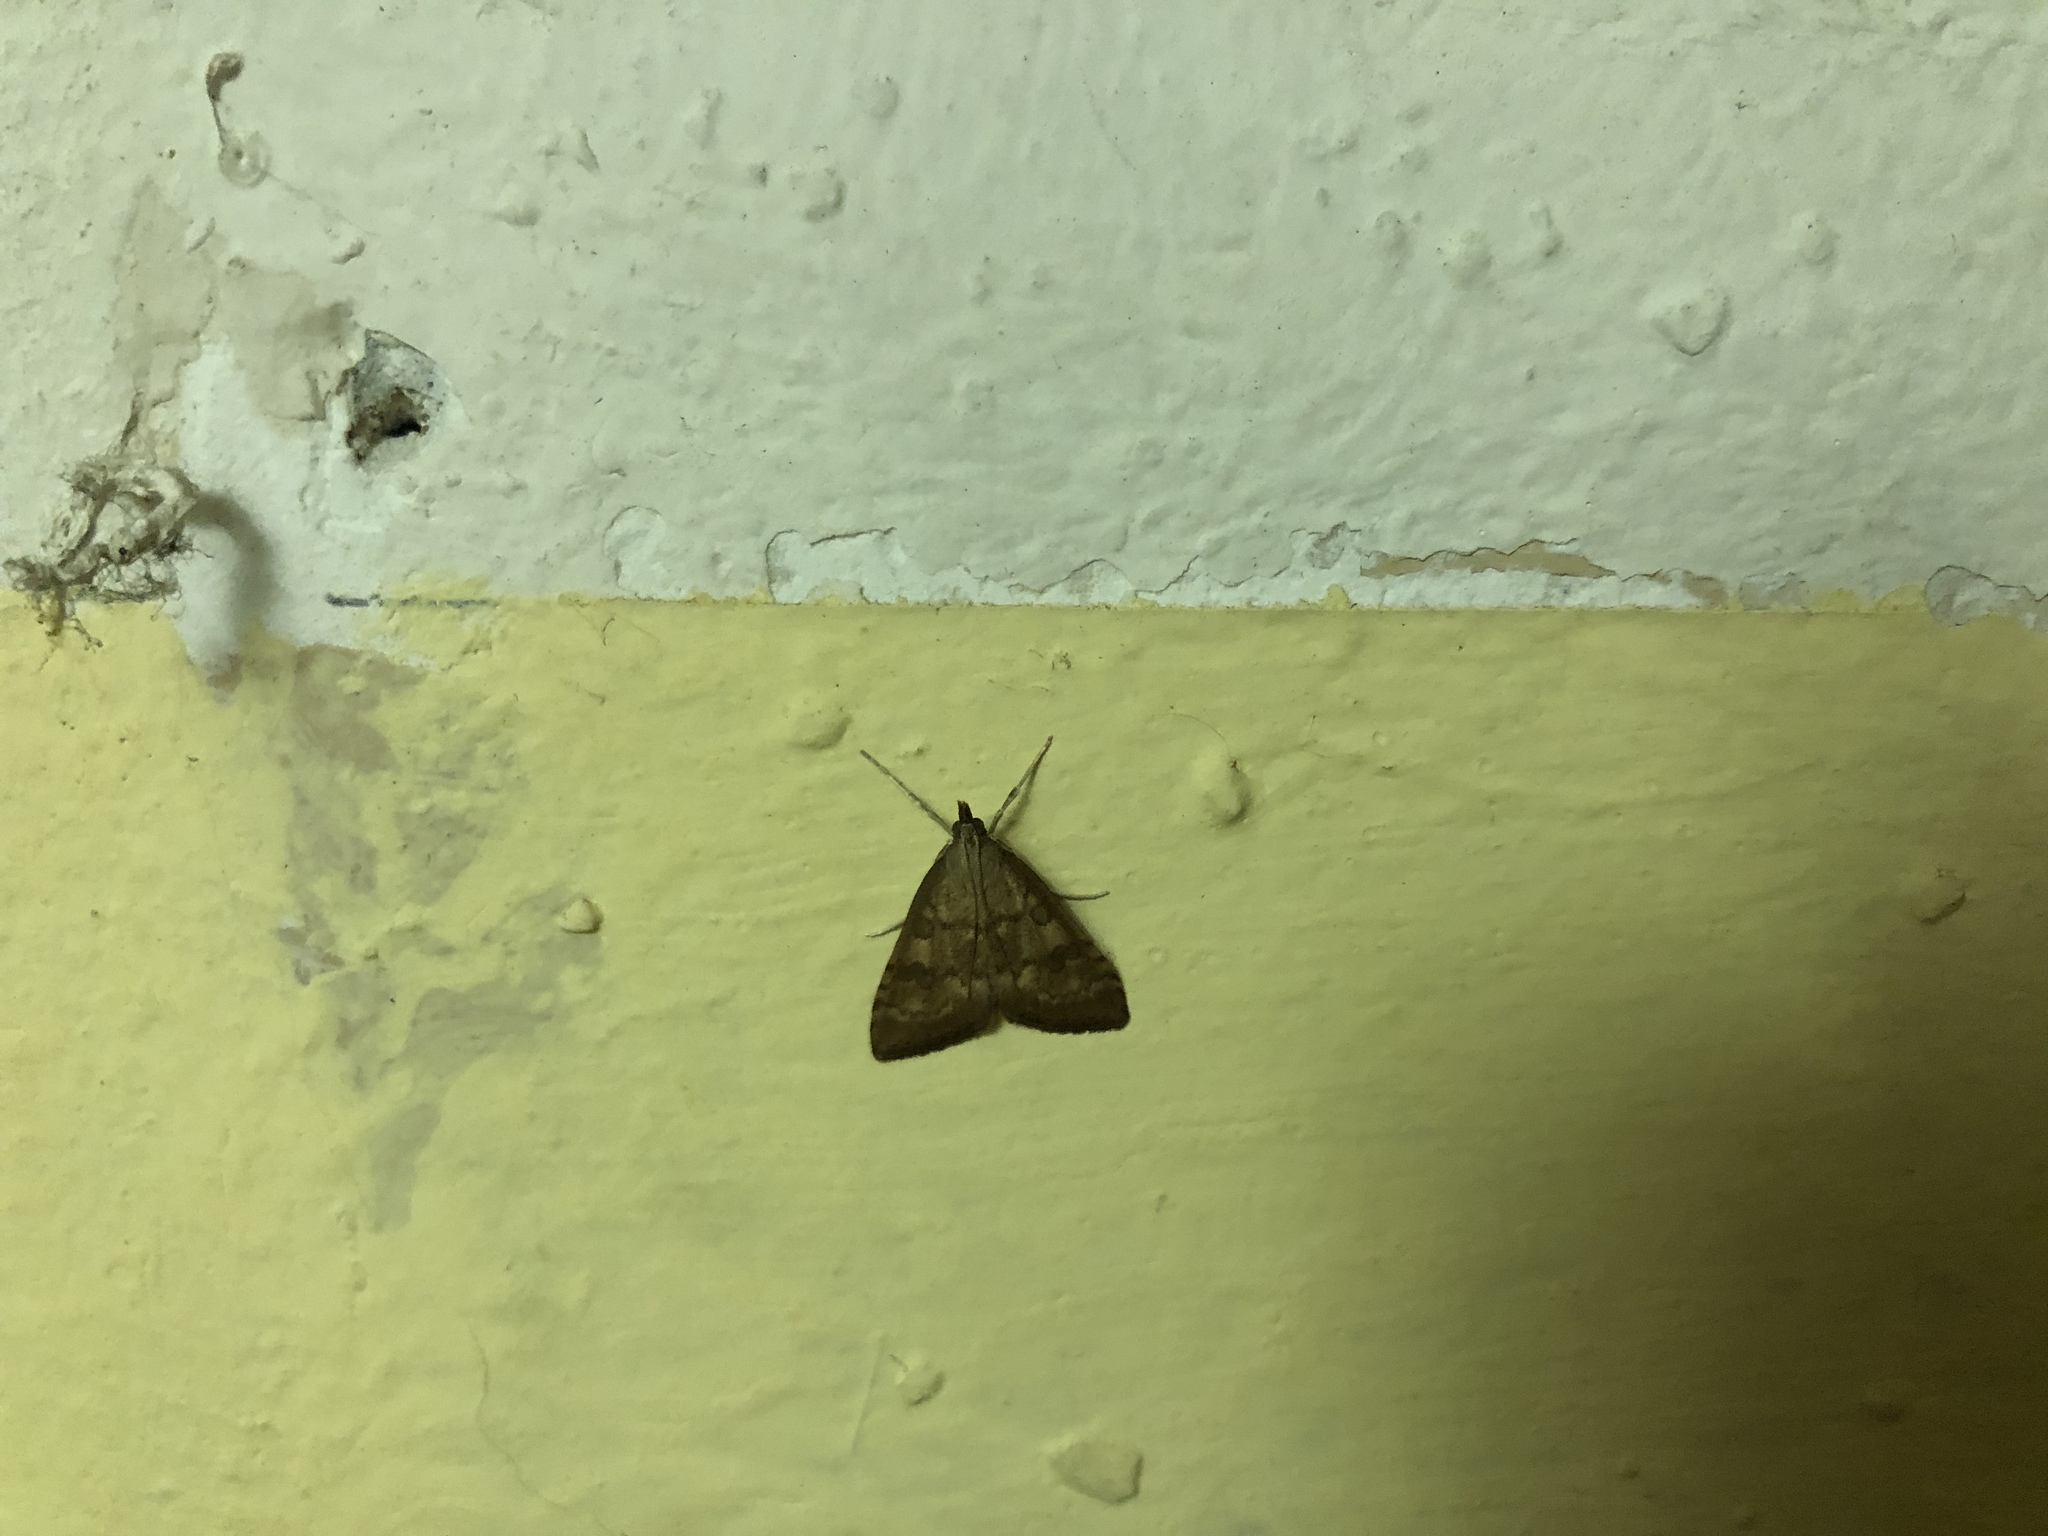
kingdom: Animalia
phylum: Arthropoda
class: Insecta
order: Lepidoptera
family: Crambidae
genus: Udea
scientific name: Udea fulvalis
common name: Fulvous pearl
